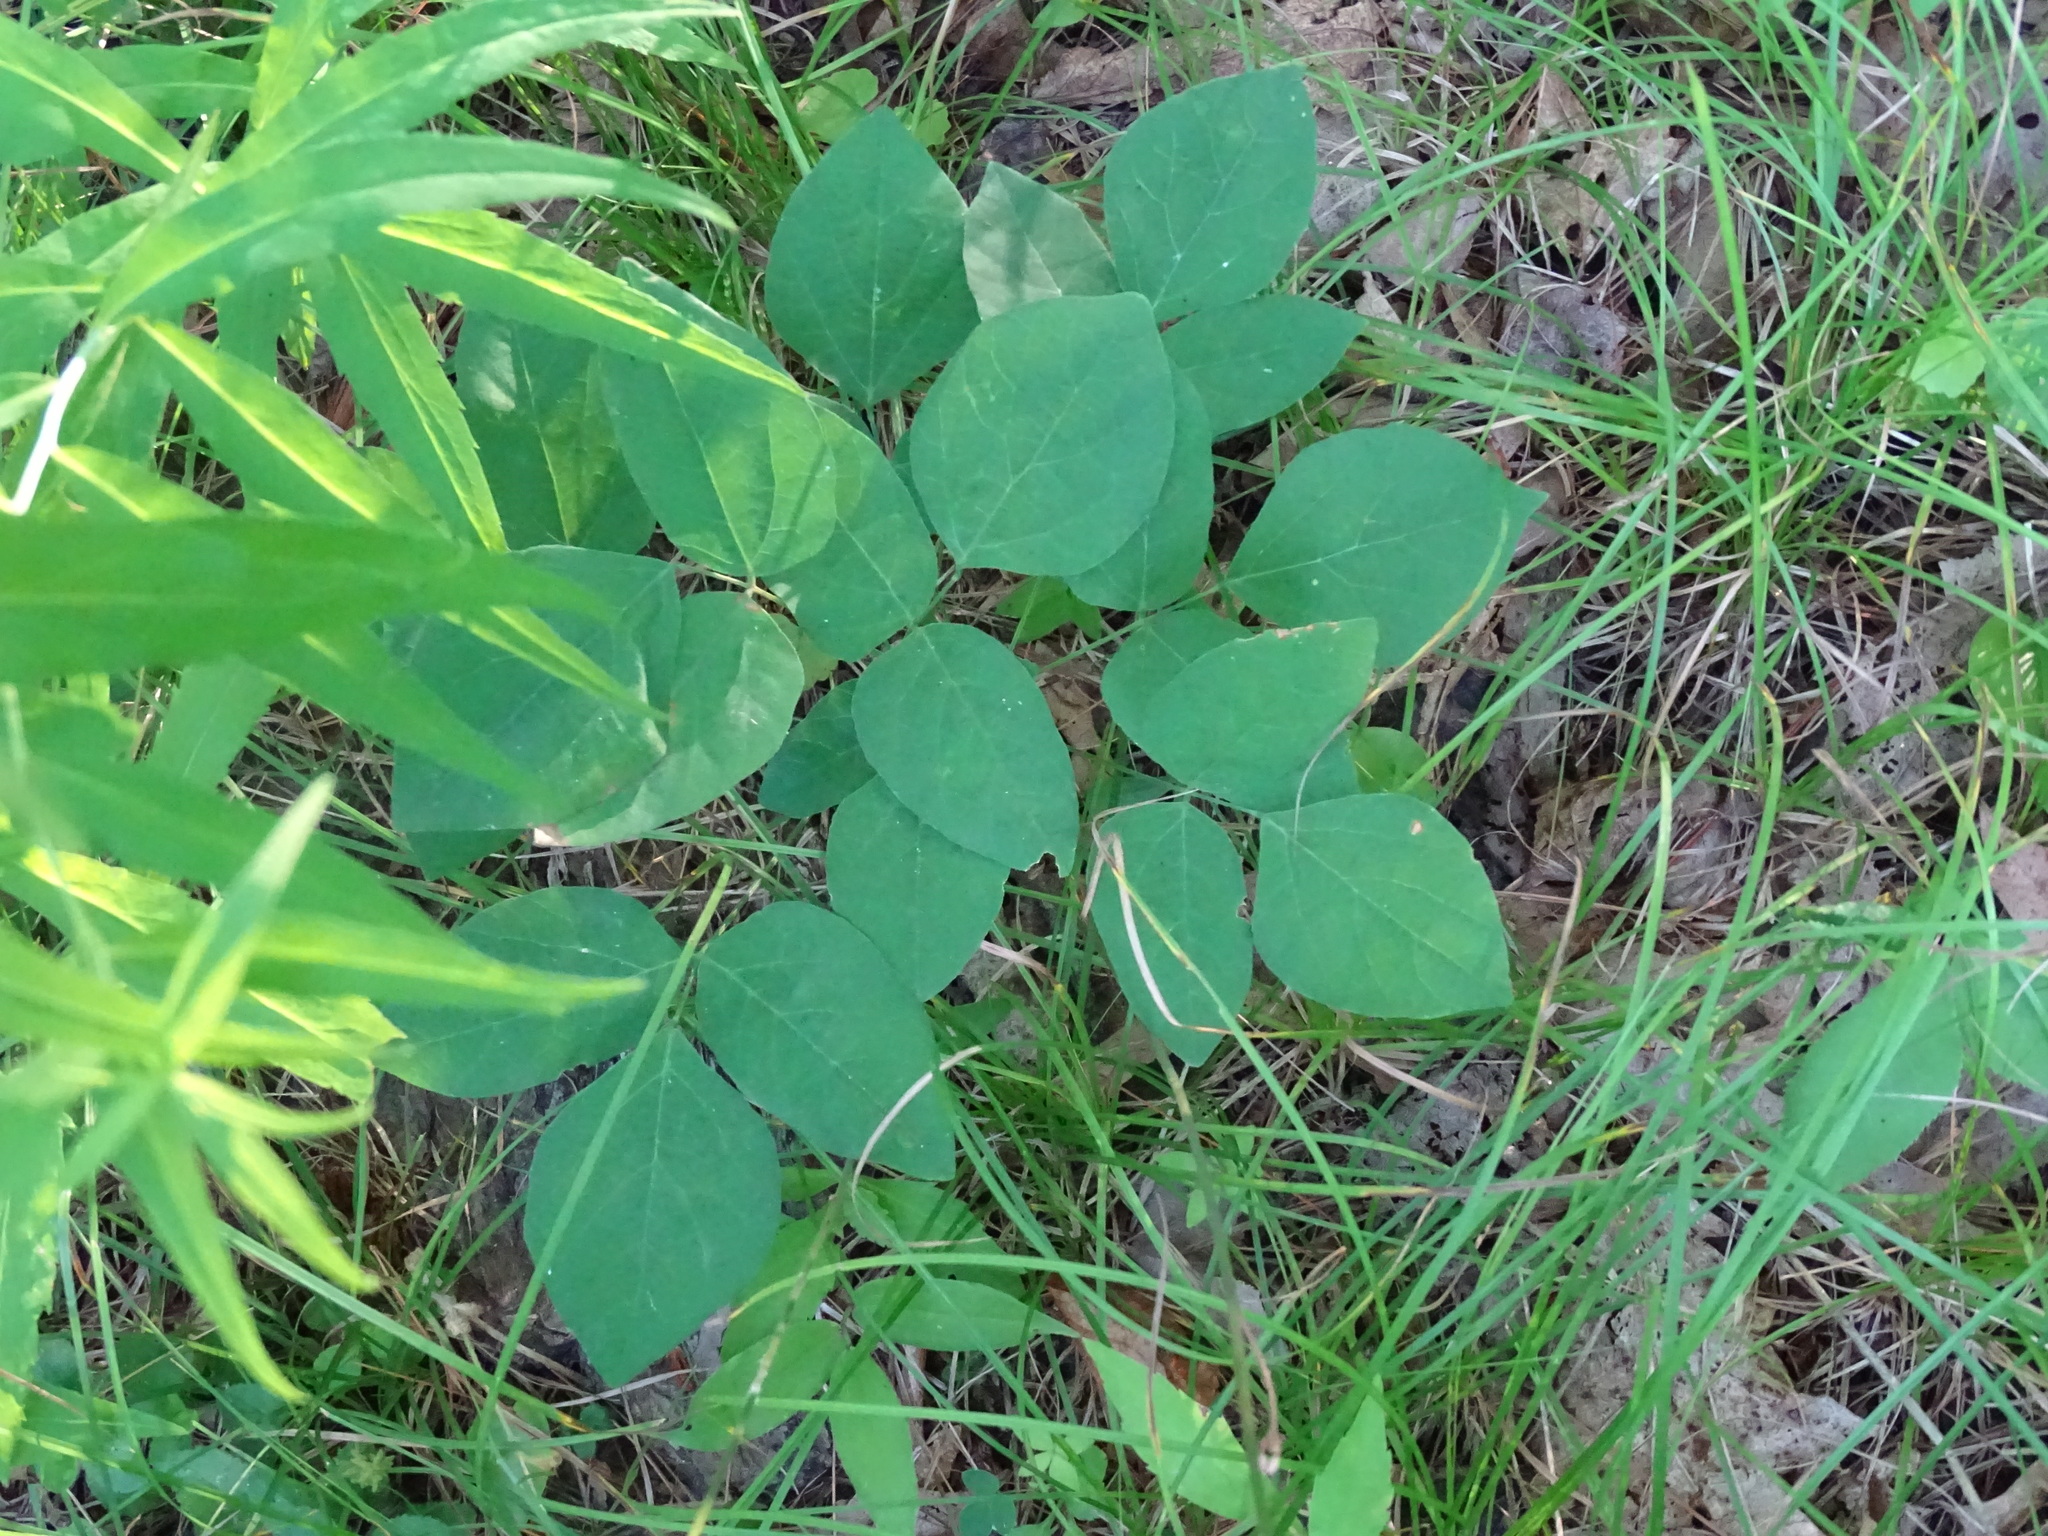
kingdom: Plantae
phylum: Tracheophyta
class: Magnoliopsida
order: Fabales
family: Fabaceae
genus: Hylodesmum
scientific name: Hylodesmum nudiflorum
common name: Bare-stemmed tick-trefoil
